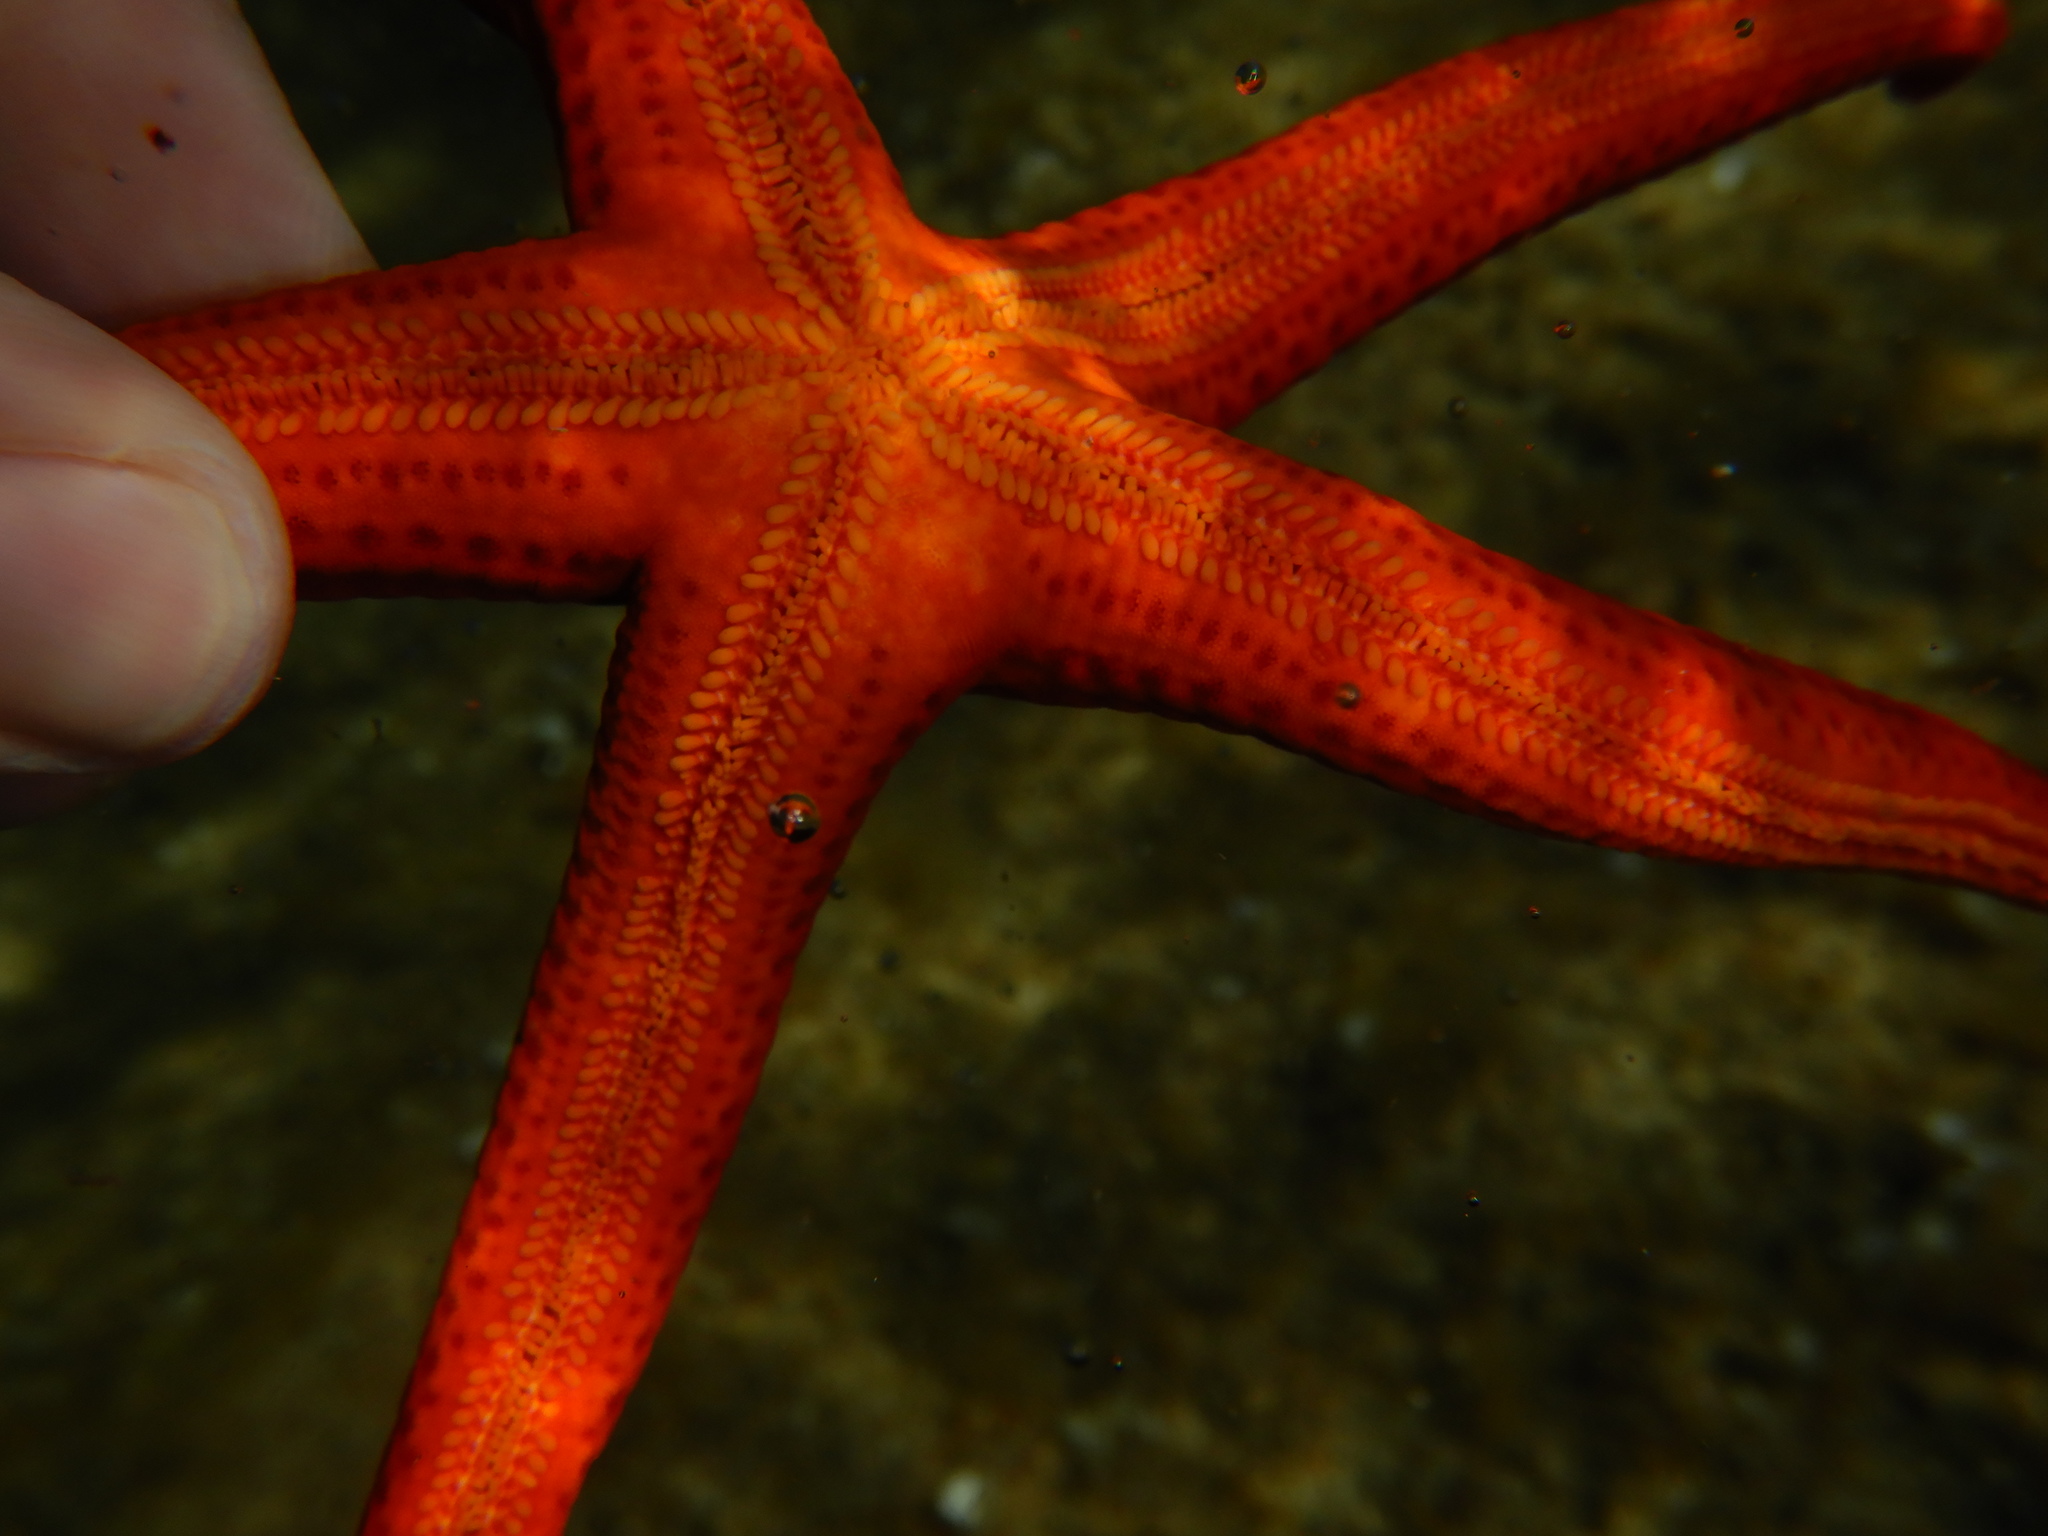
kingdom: Animalia
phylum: Echinodermata
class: Asteroidea
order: Valvatida
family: Ophidiasteridae
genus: Hacelia
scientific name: Hacelia attenuata
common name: Smooth starfish
